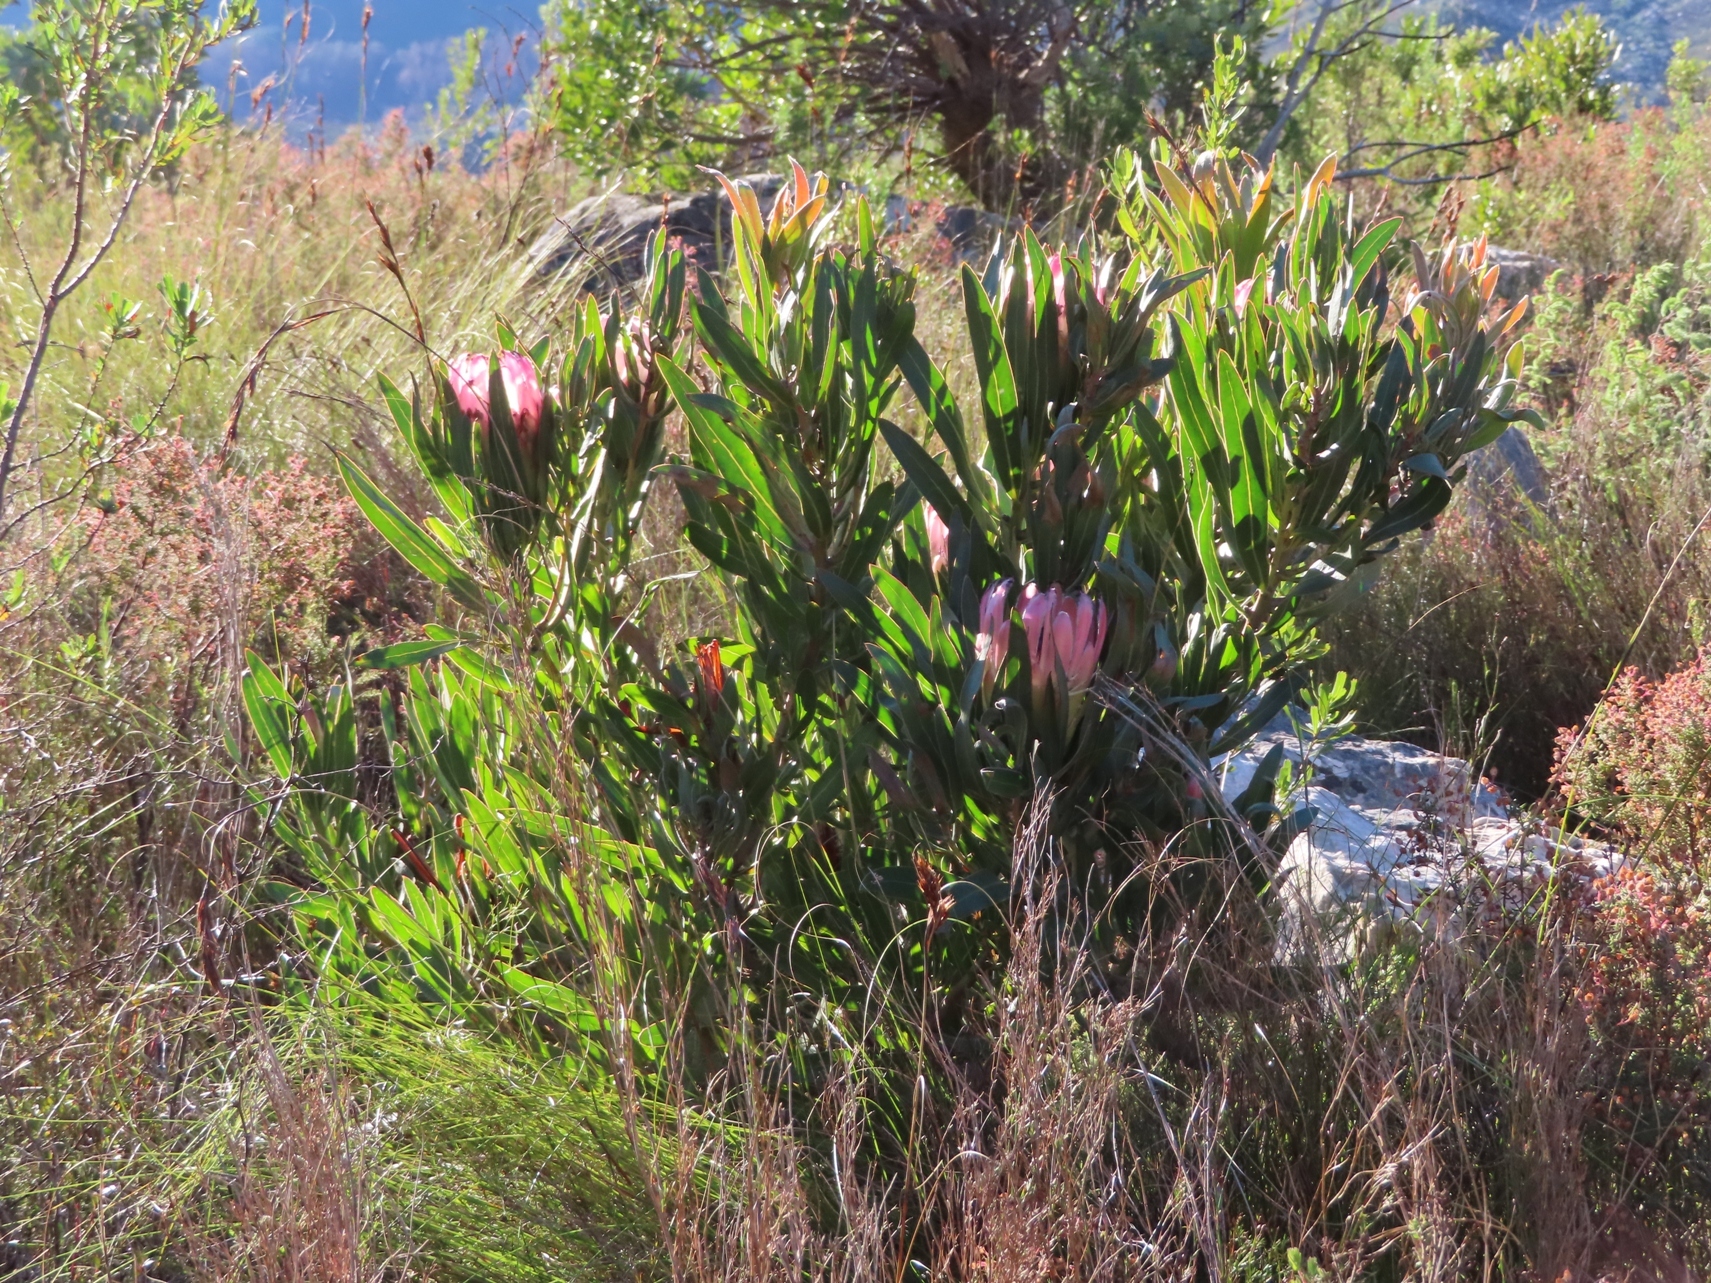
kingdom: Plantae
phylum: Tracheophyta
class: Magnoliopsida
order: Proteales
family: Proteaceae
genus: Protea
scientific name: Protea burchellii
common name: Burchell's sugarbush
